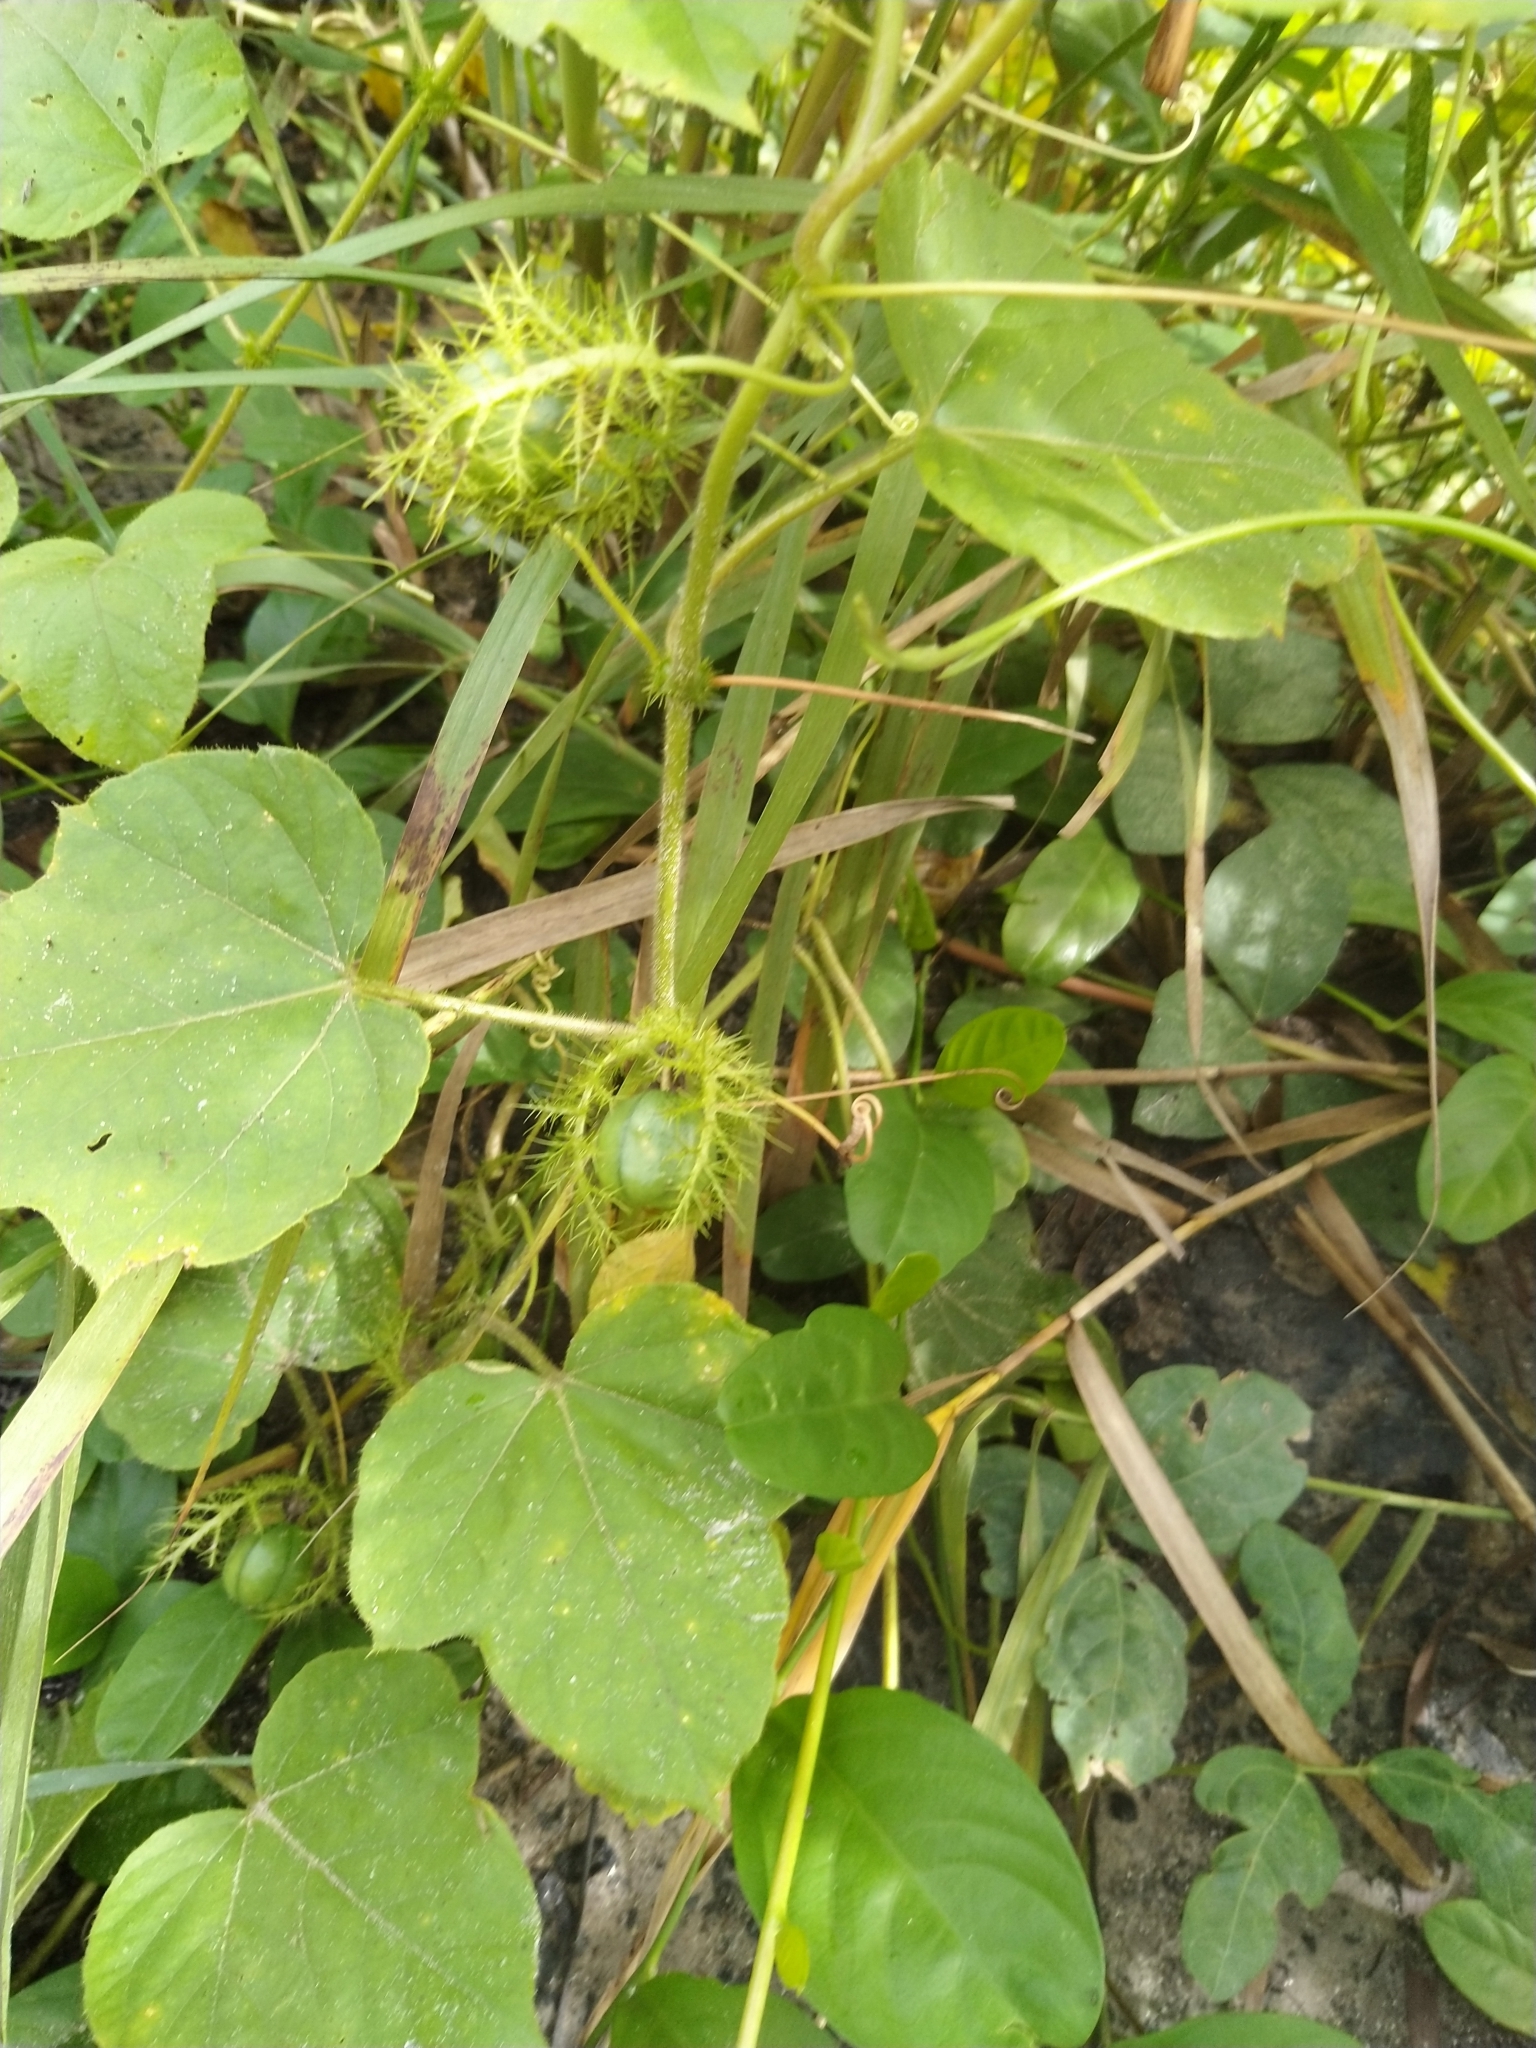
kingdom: Plantae
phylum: Tracheophyta
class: Magnoliopsida
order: Malpighiales
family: Passifloraceae
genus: Passiflora
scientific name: Passiflora foetida
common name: Fetid passionflower
